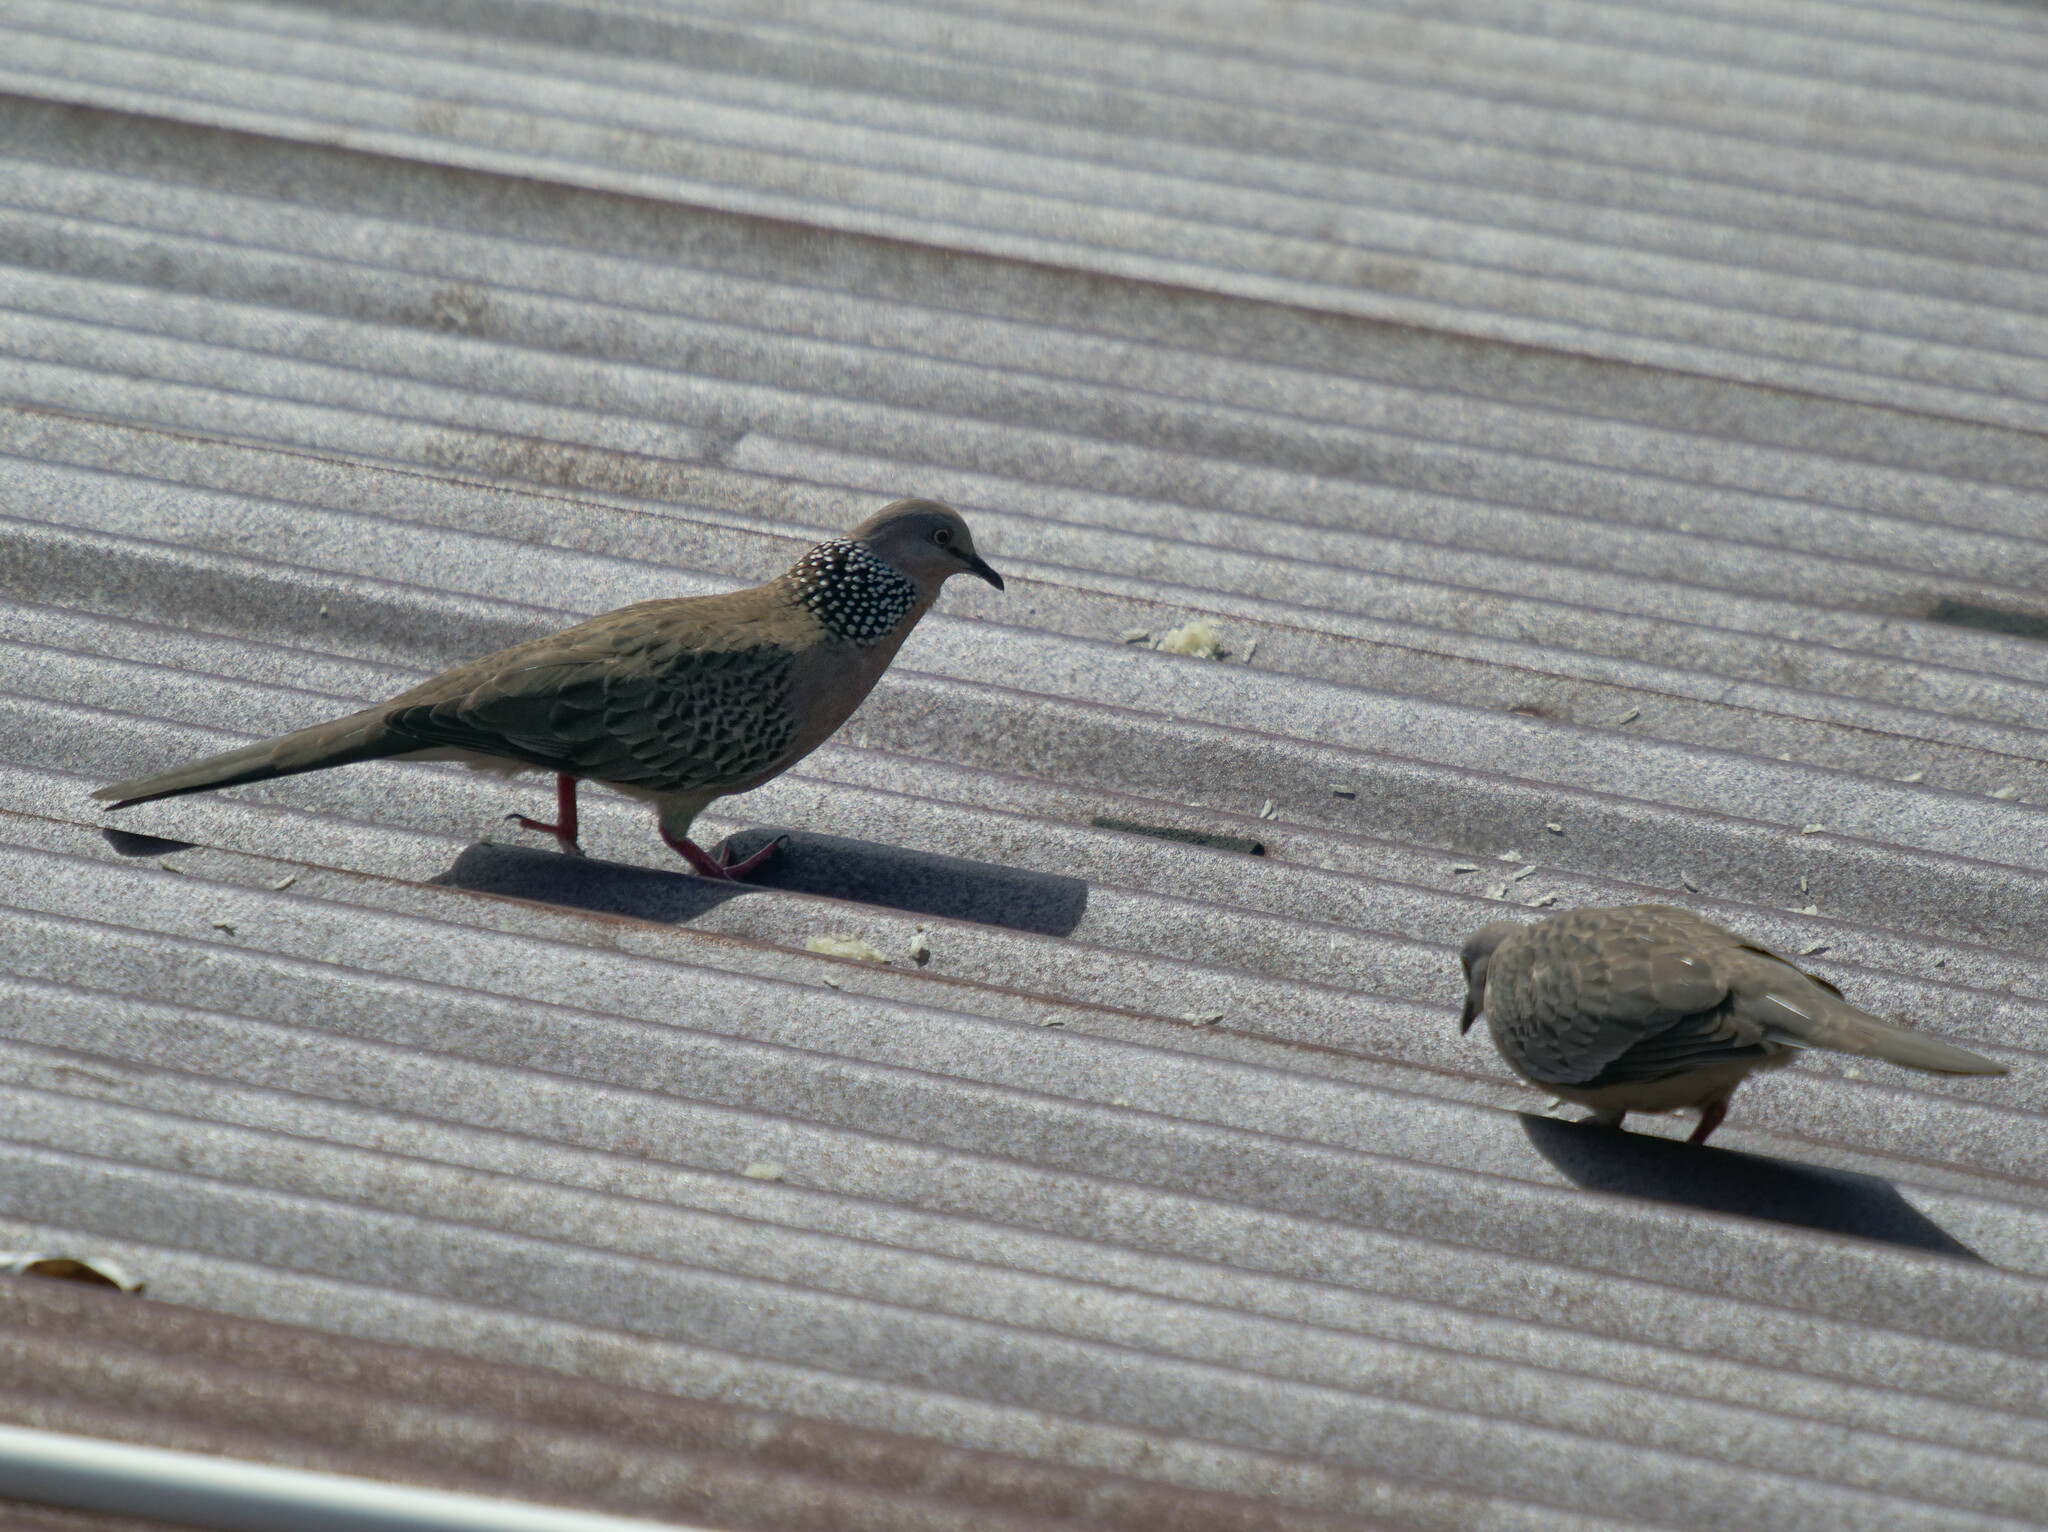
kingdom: Animalia
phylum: Chordata
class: Aves
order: Columbiformes
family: Columbidae
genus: Spilopelia
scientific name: Spilopelia chinensis
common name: Spotted dove
